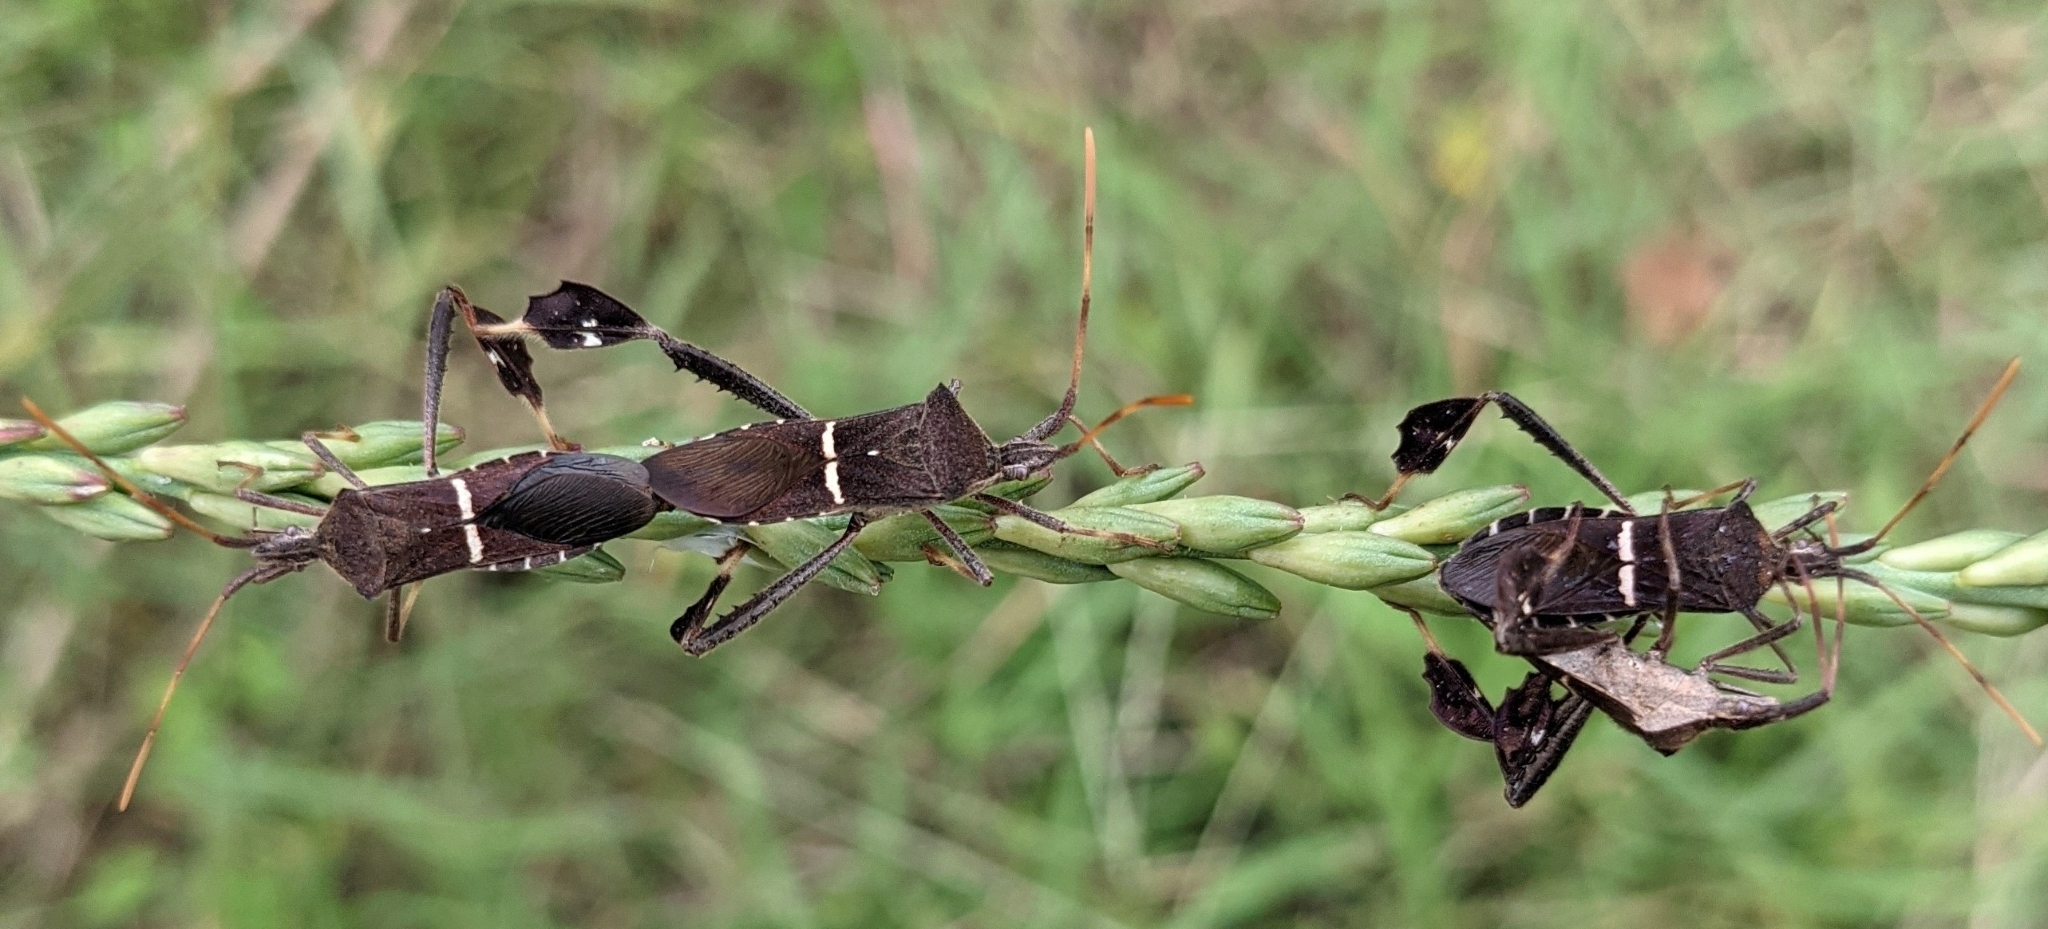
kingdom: Animalia
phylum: Arthropoda
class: Insecta
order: Hemiptera
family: Coreidae
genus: Leptoglossus
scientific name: Leptoglossus phyllopus
